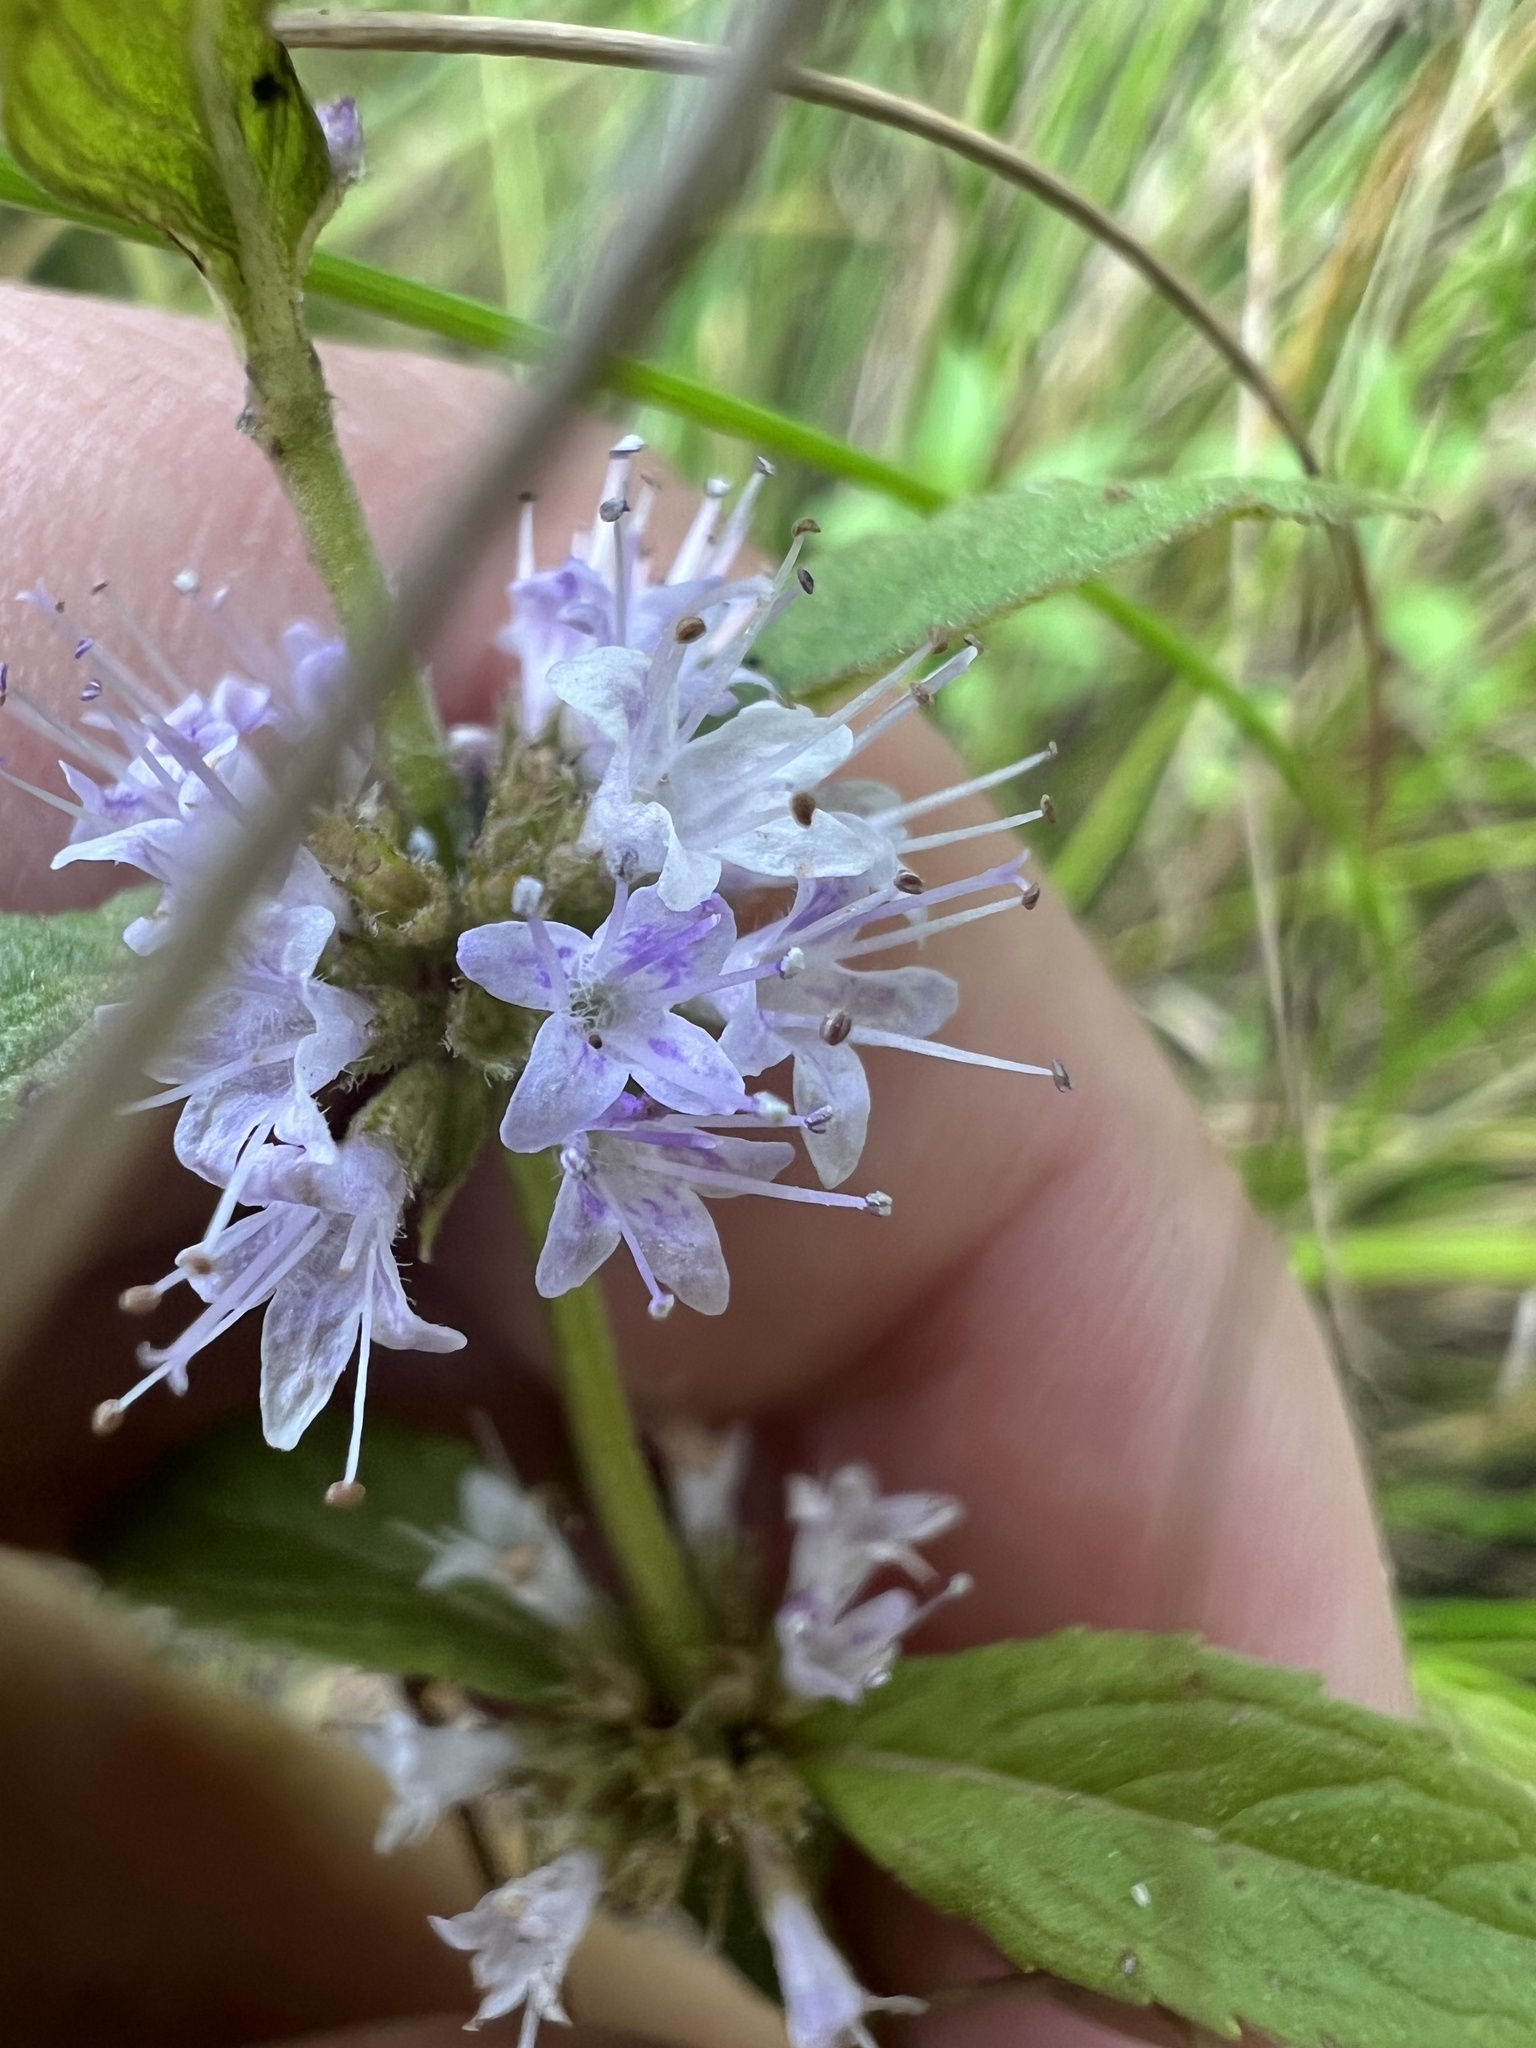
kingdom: Plantae
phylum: Tracheophyta
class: Magnoliopsida
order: Lamiales
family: Lamiaceae
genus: Mentha
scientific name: Mentha canadensis
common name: American corn mint
